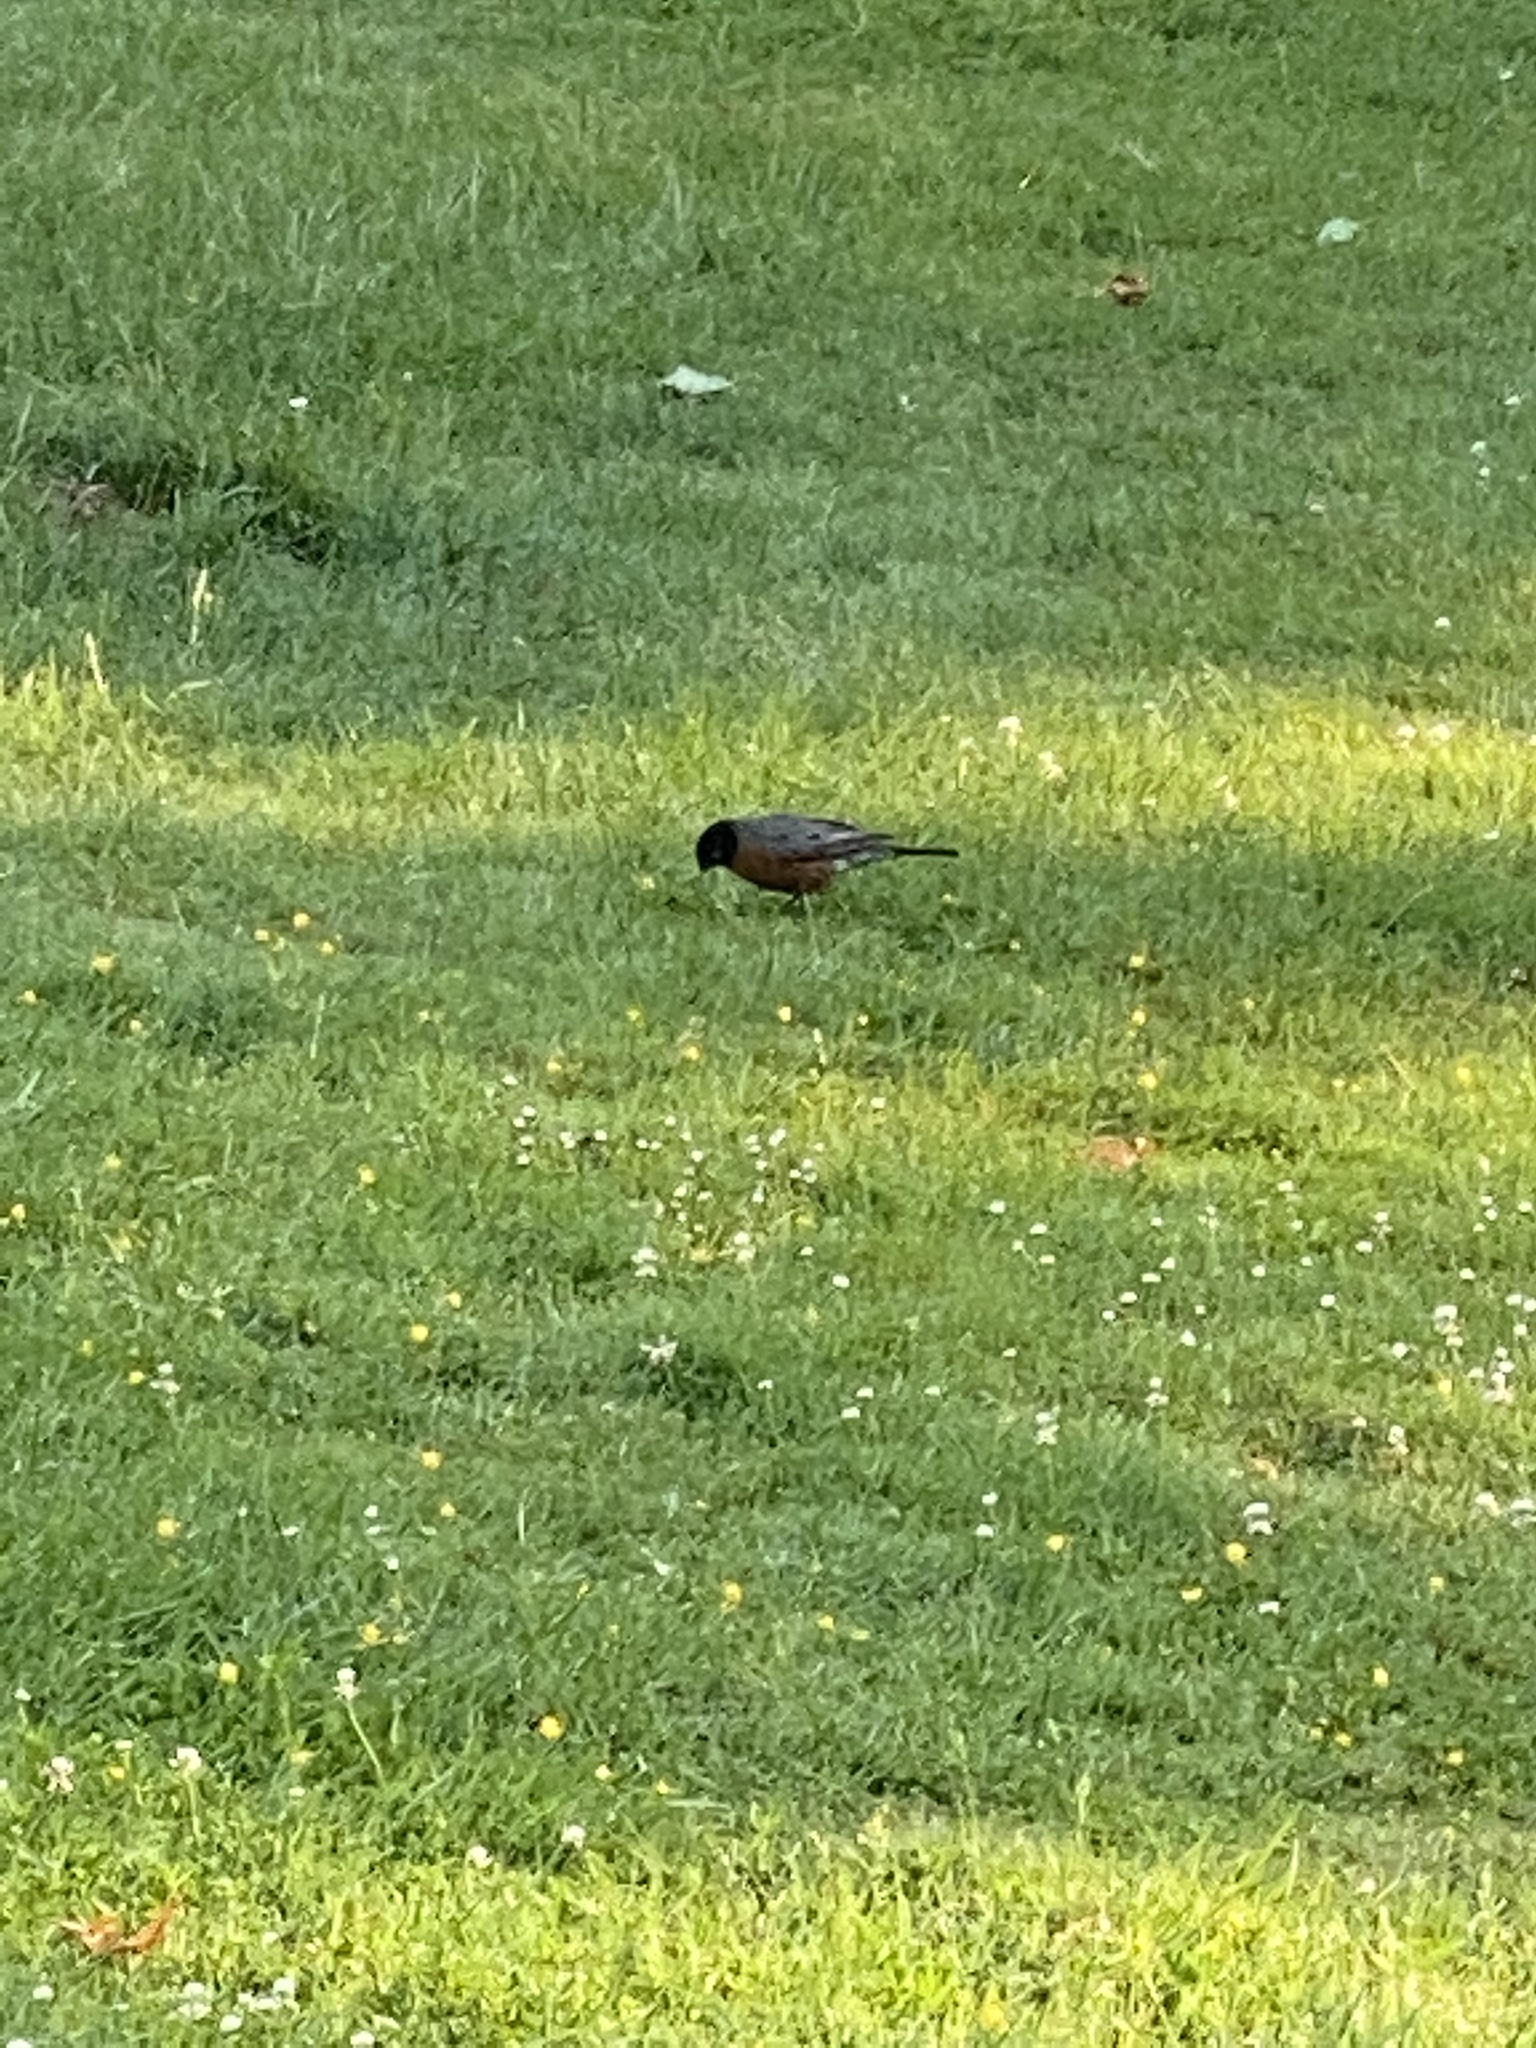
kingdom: Animalia
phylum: Chordata
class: Aves
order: Passeriformes
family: Turdidae
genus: Turdus
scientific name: Turdus migratorius
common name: American robin
